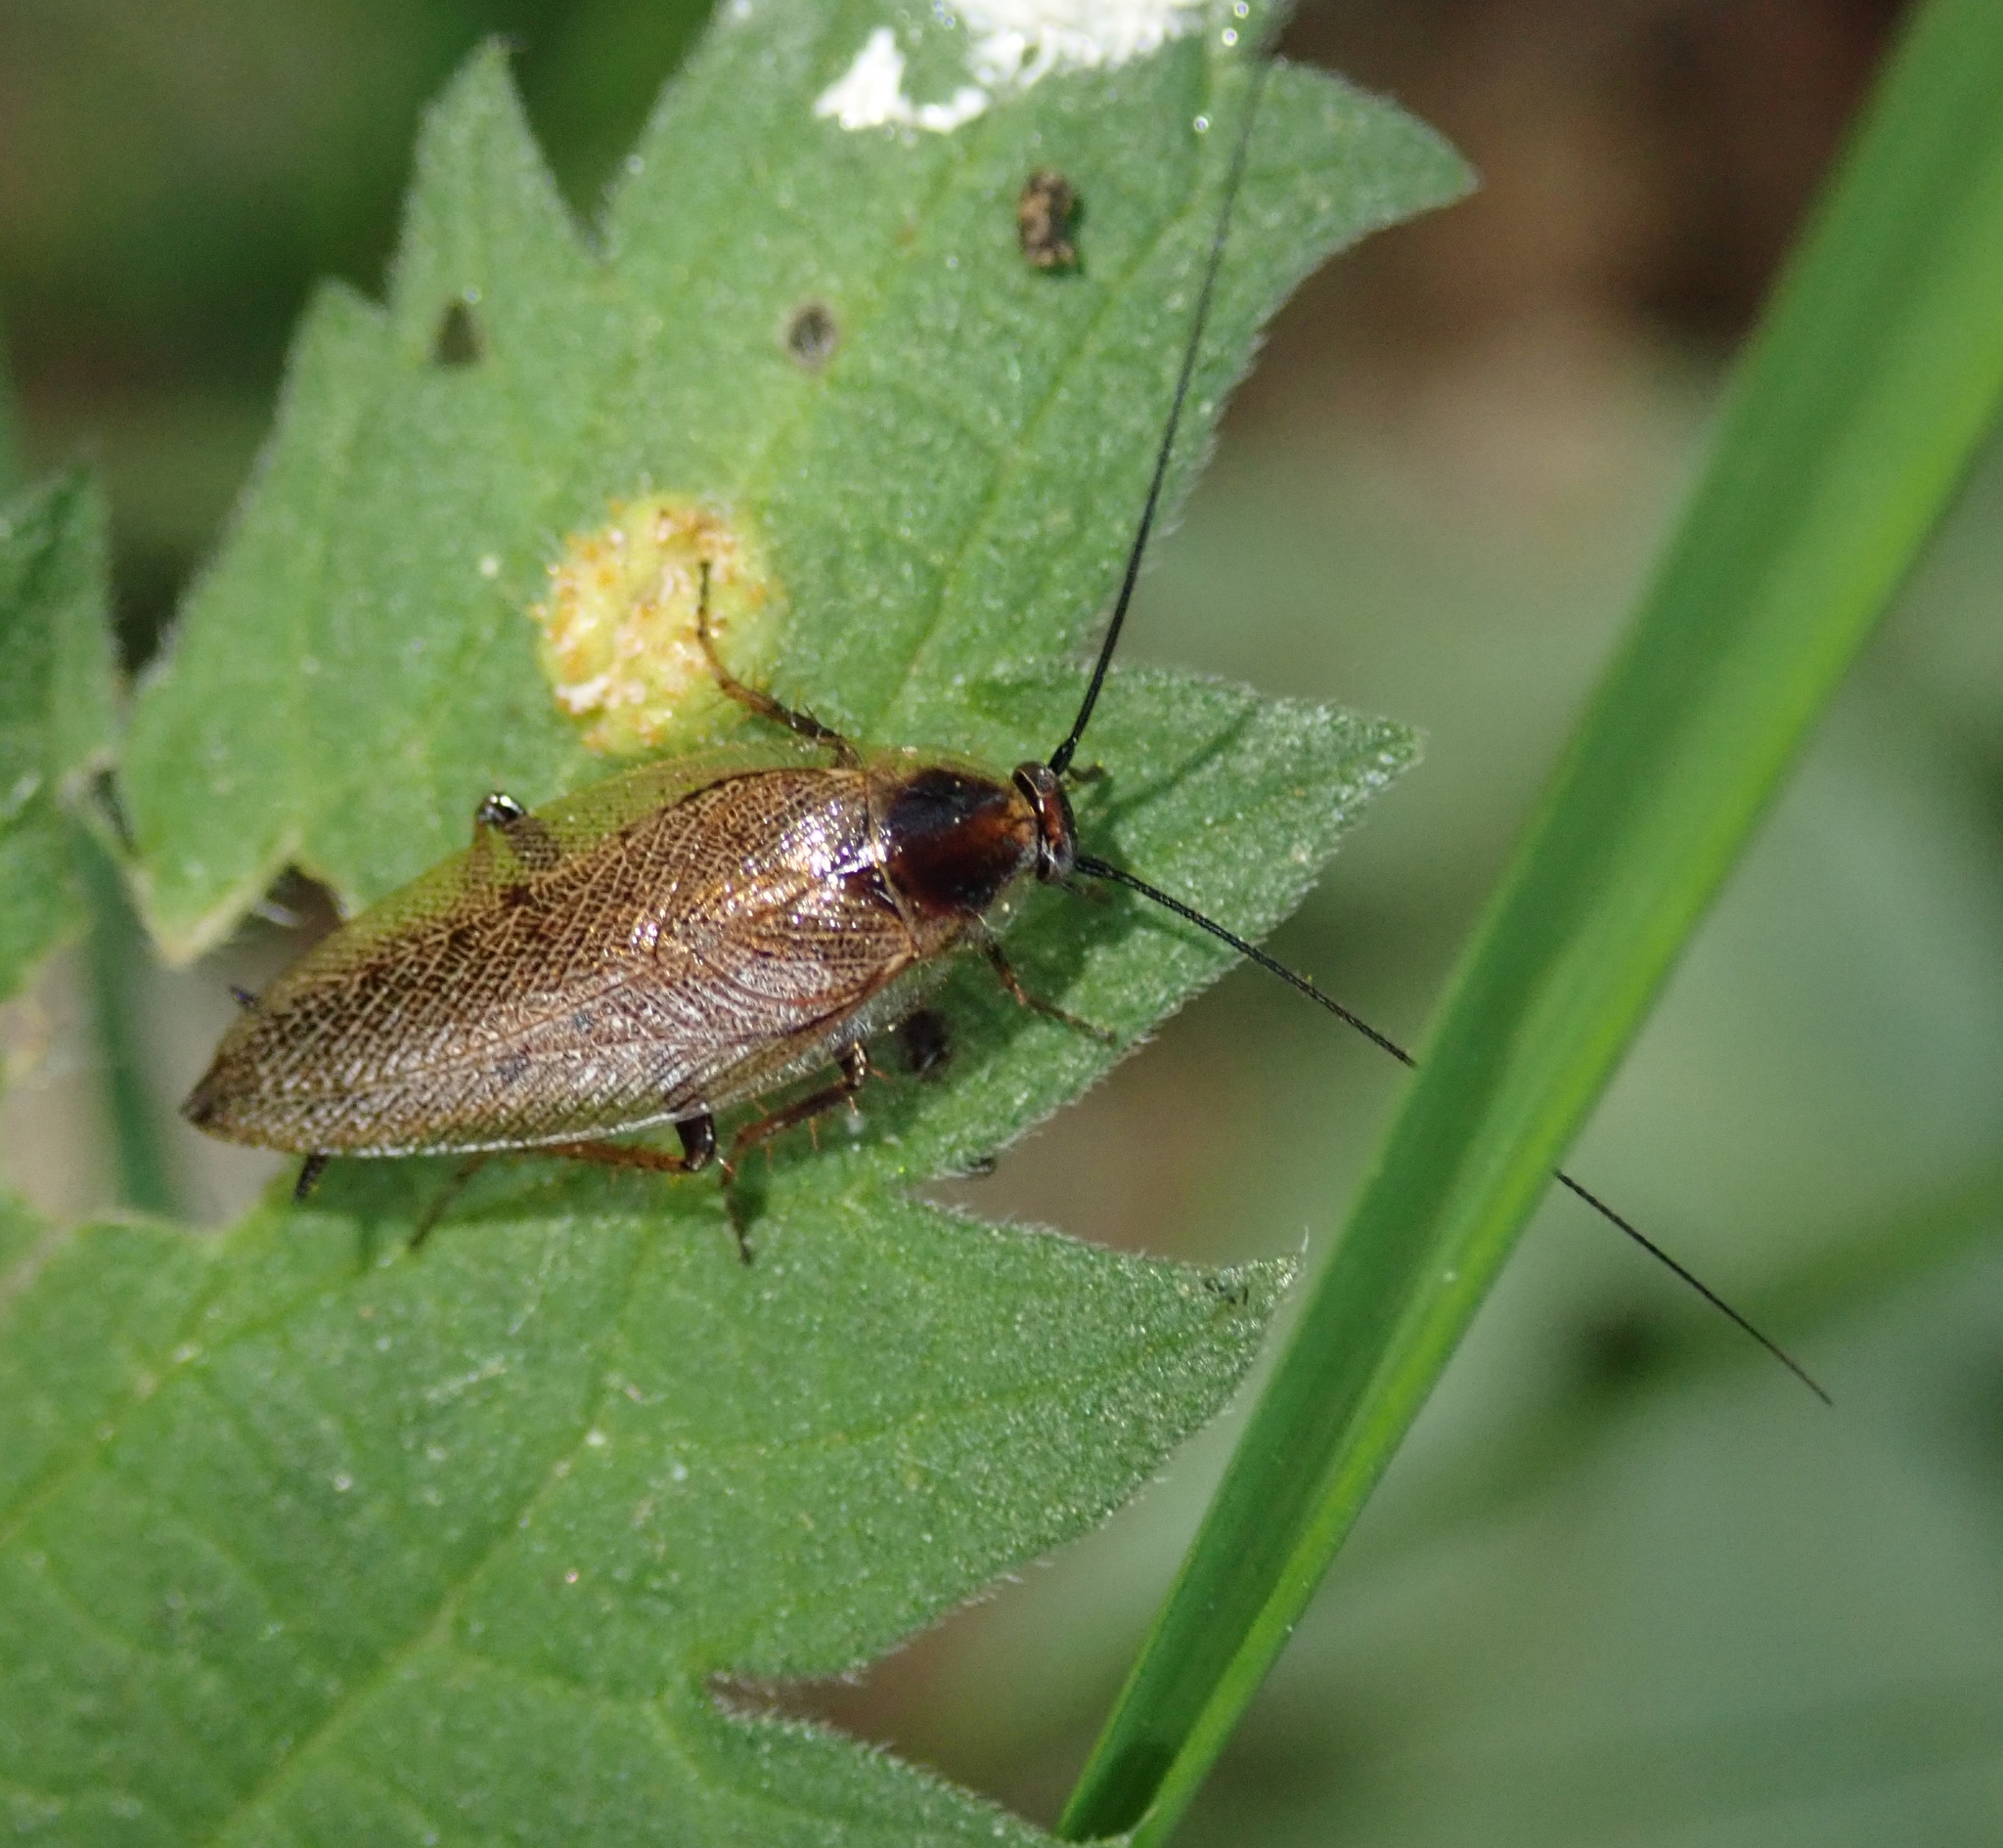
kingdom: Animalia
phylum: Arthropoda
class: Insecta
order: Blattodea
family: Ectobiidae
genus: Ectobius
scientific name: Ectobius lapponicus
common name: Dusky cockroach
